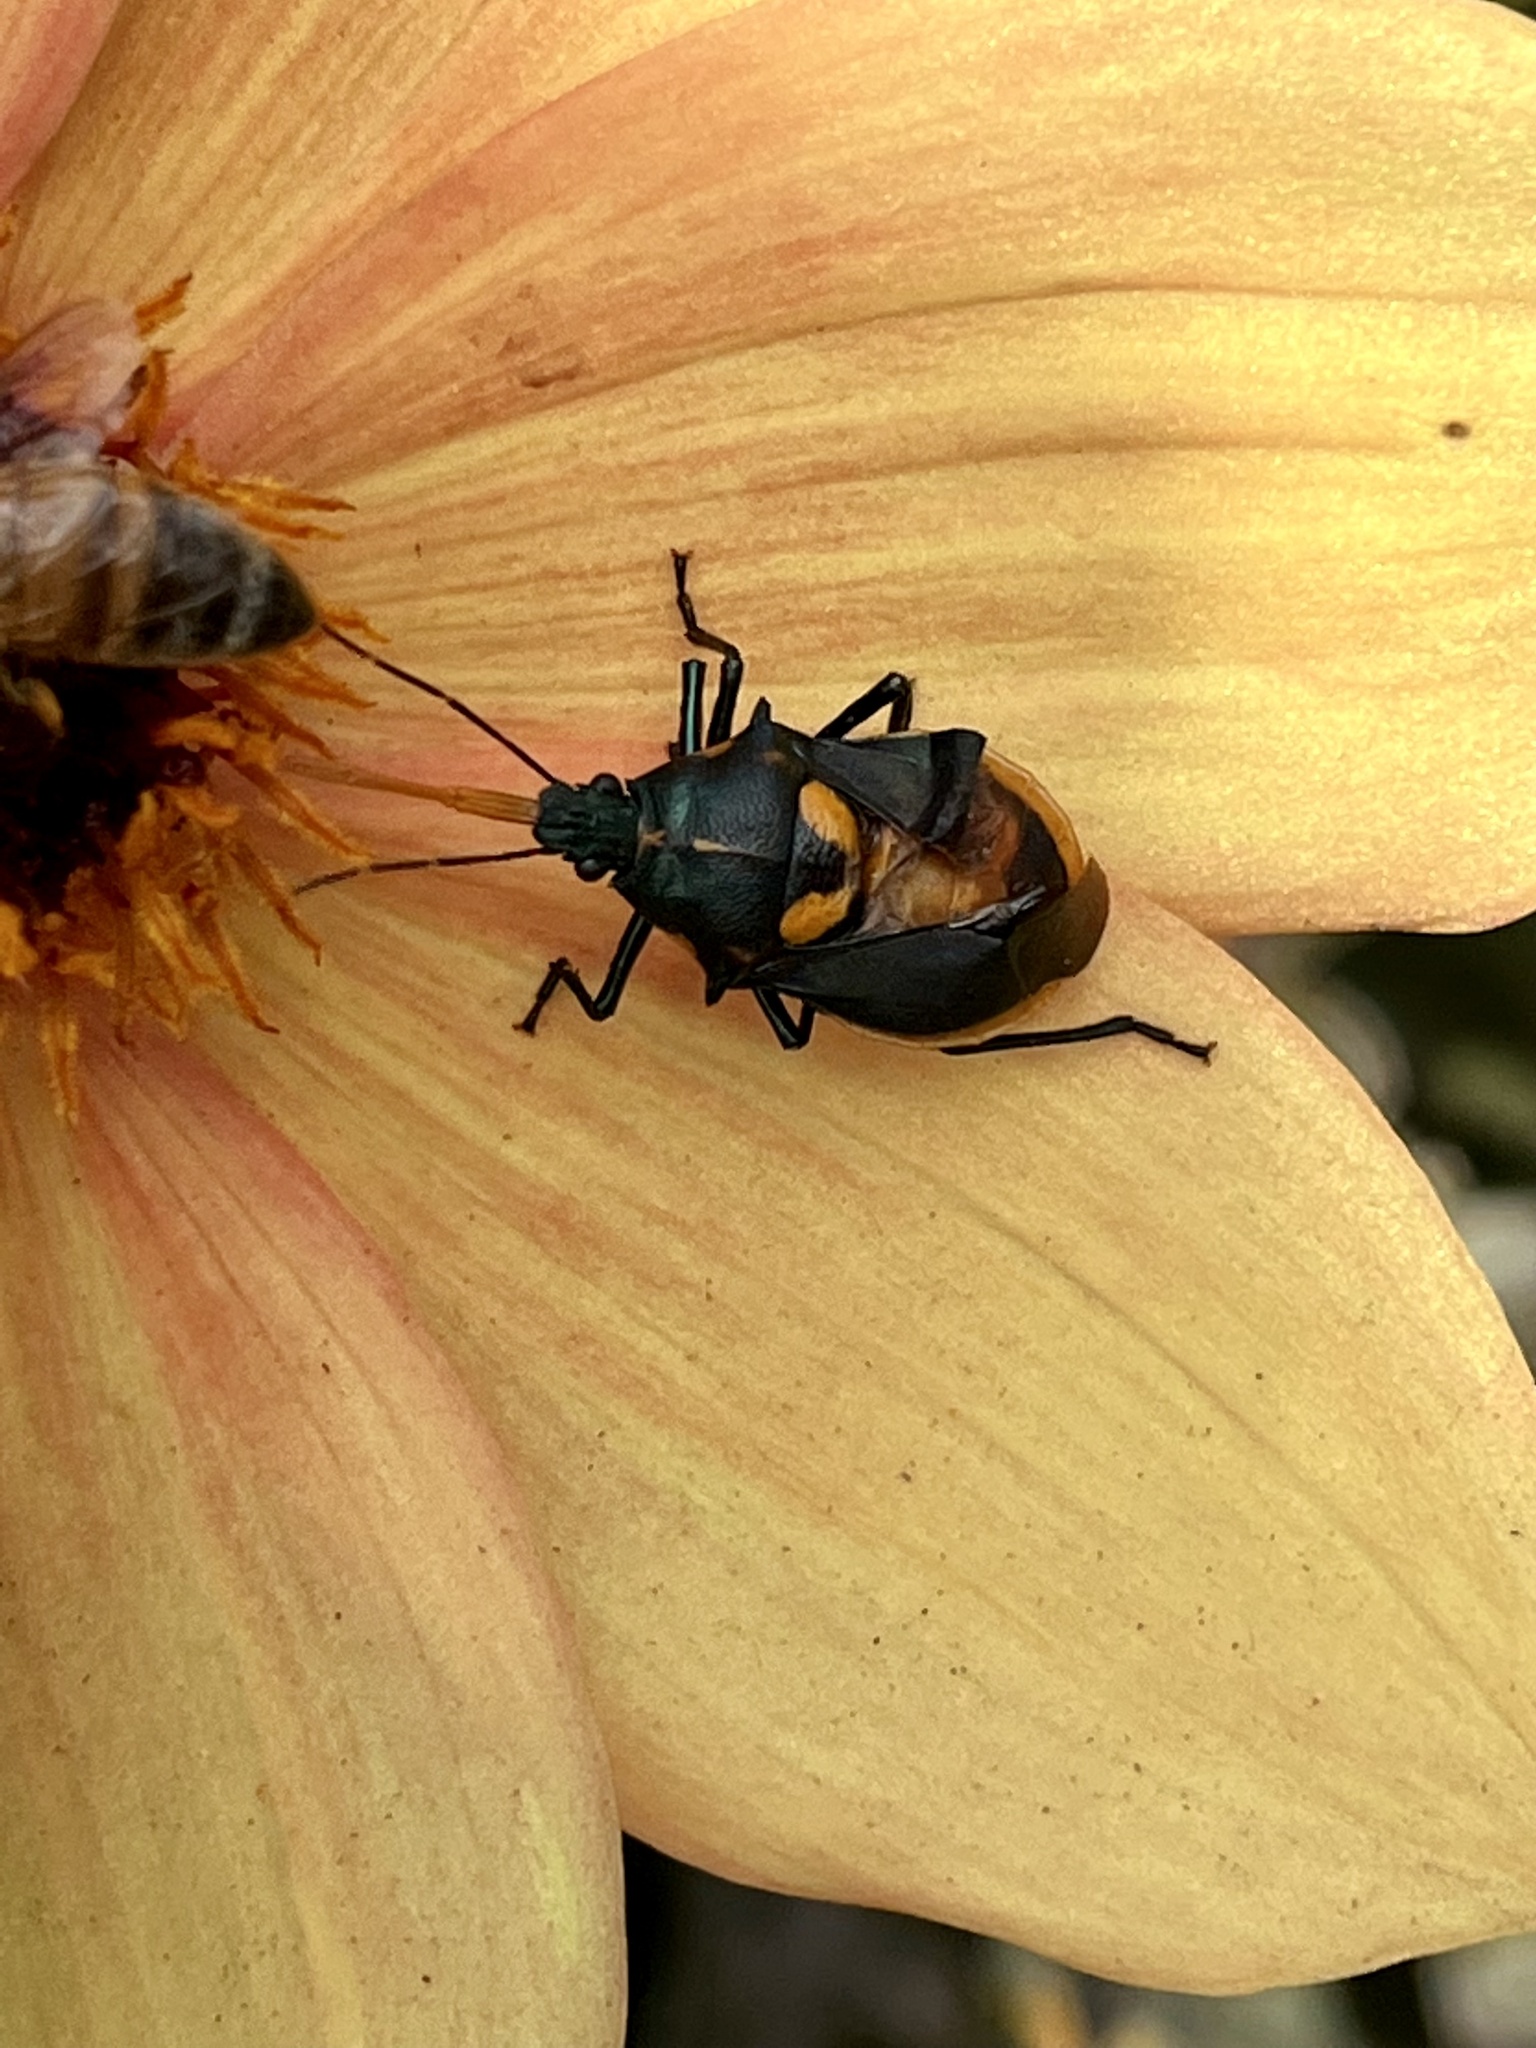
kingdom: Animalia
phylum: Arthropoda
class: Insecta
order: Hemiptera
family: Pentatomidae
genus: Euthyrhynchus
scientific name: Euthyrhynchus floridanus
